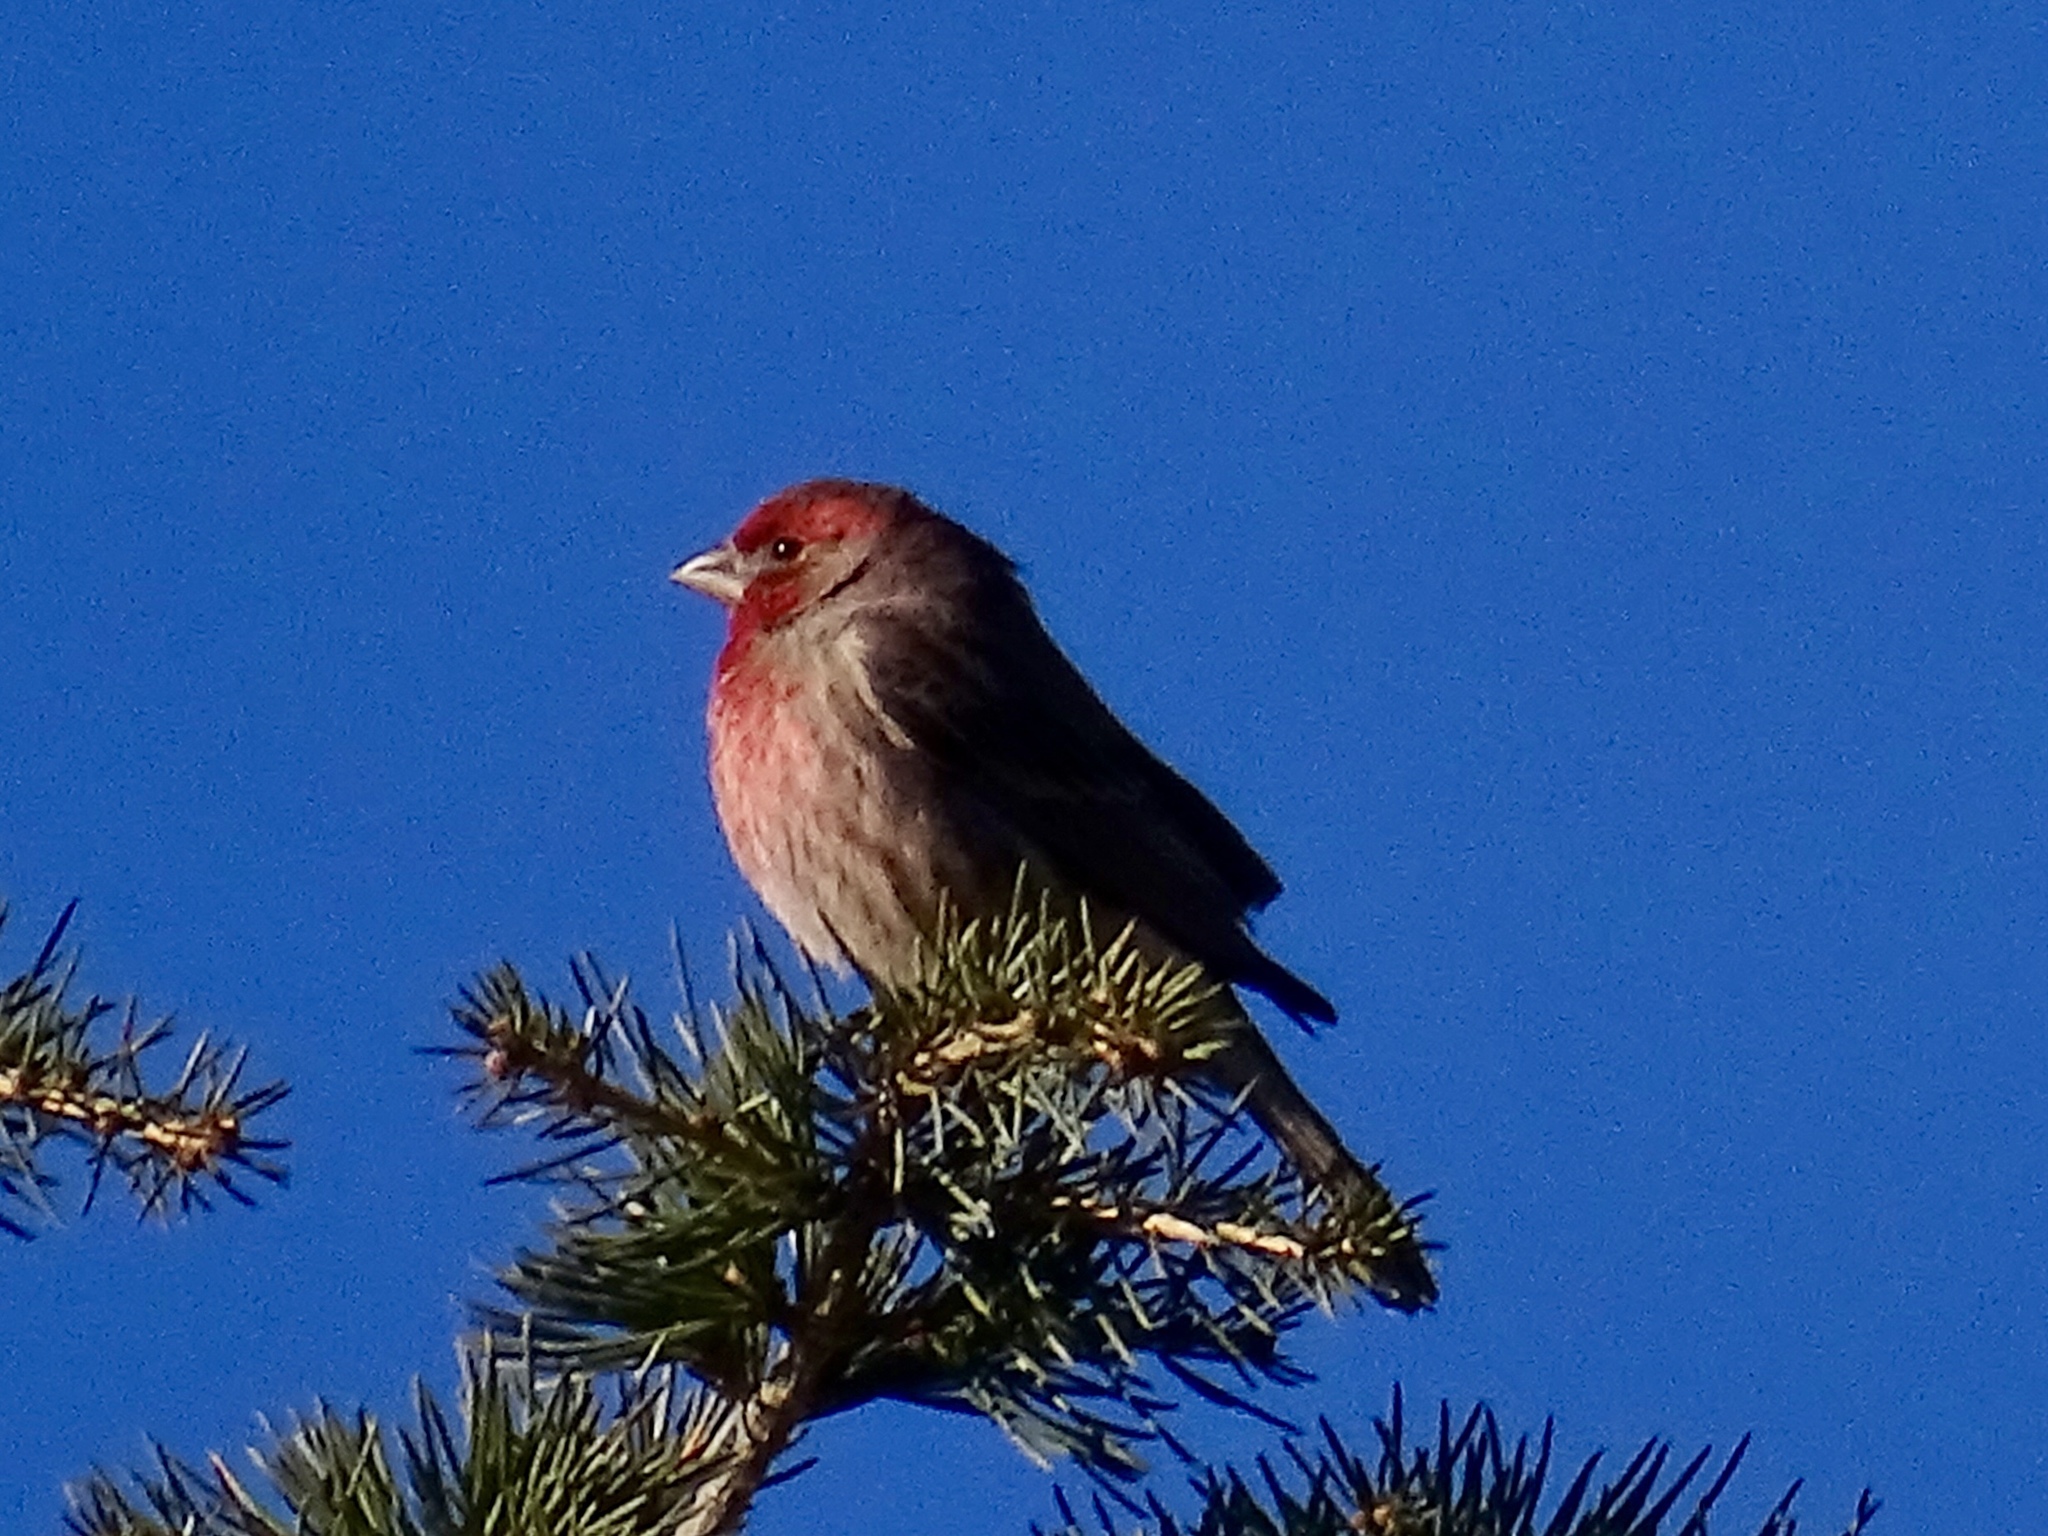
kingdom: Animalia
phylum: Chordata
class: Aves
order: Passeriformes
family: Fringillidae
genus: Haemorhous
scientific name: Haemorhous mexicanus
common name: House finch
